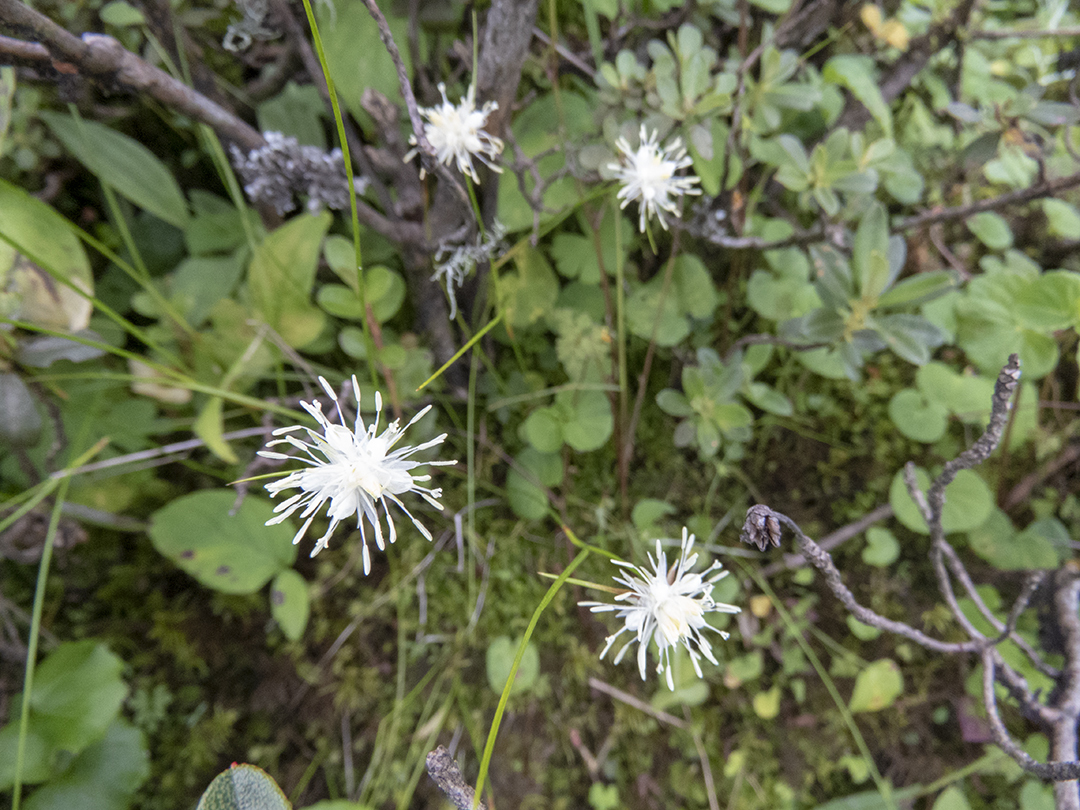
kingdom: Plantae
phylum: Tracheophyta
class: Liliopsida
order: Poales
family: Juncaceae
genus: Juncus
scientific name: Juncus thomsonii
